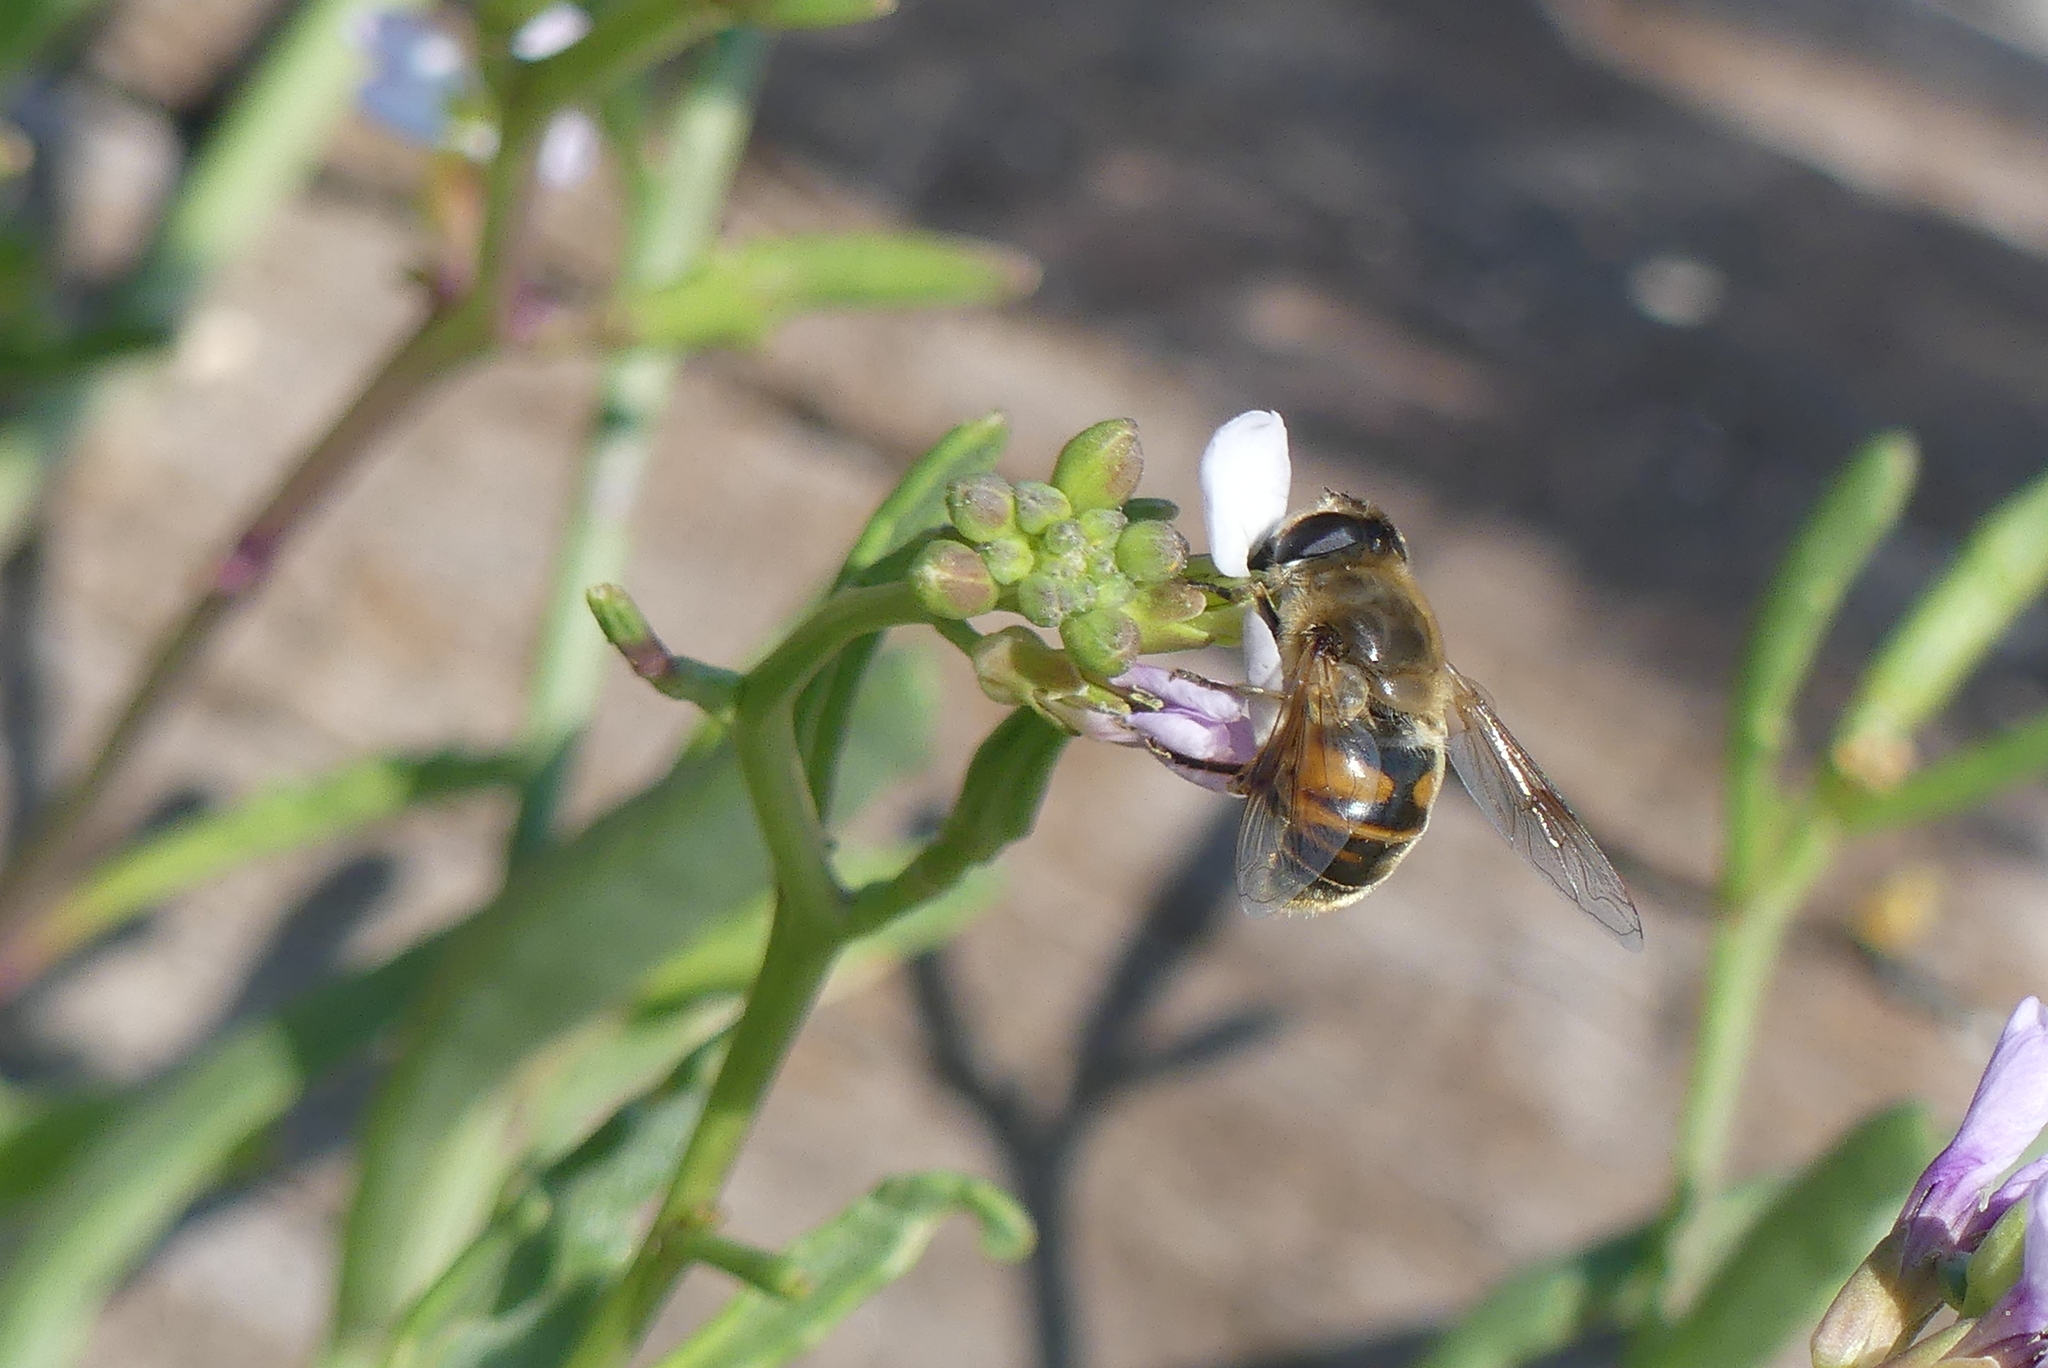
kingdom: Animalia
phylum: Arthropoda
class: Insecta
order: Diptera
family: Syrphidae
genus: Eristalis
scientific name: Eristalis tenax
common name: Drone fly
